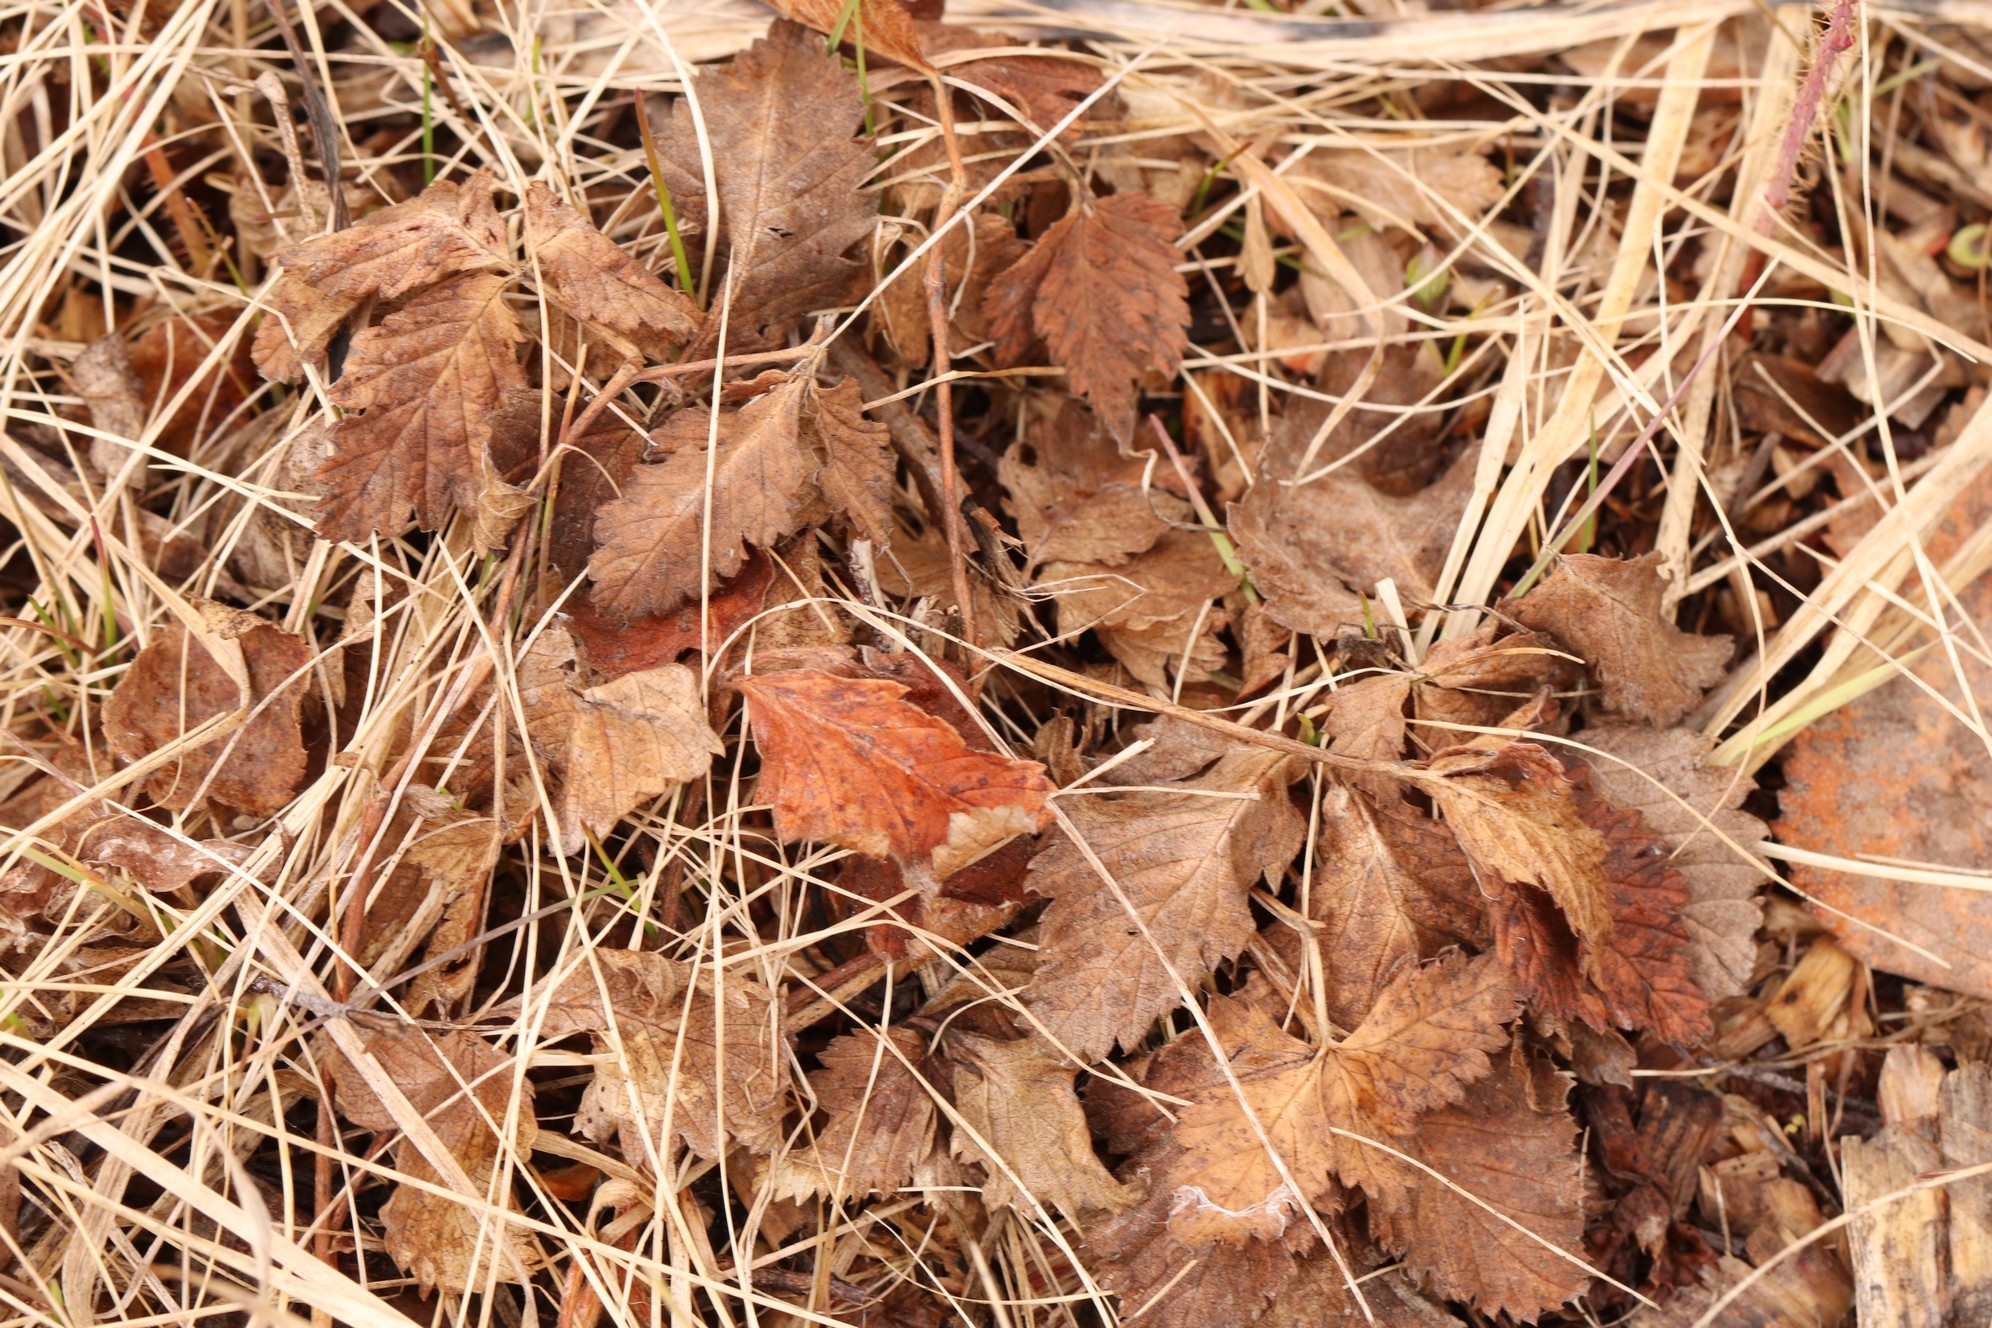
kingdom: Plantae
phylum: Tracheophyta
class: Magnoliopsida
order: Rosales
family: Rosaceae
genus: Rubus
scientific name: Rubus arcticus
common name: Arctic bramble
